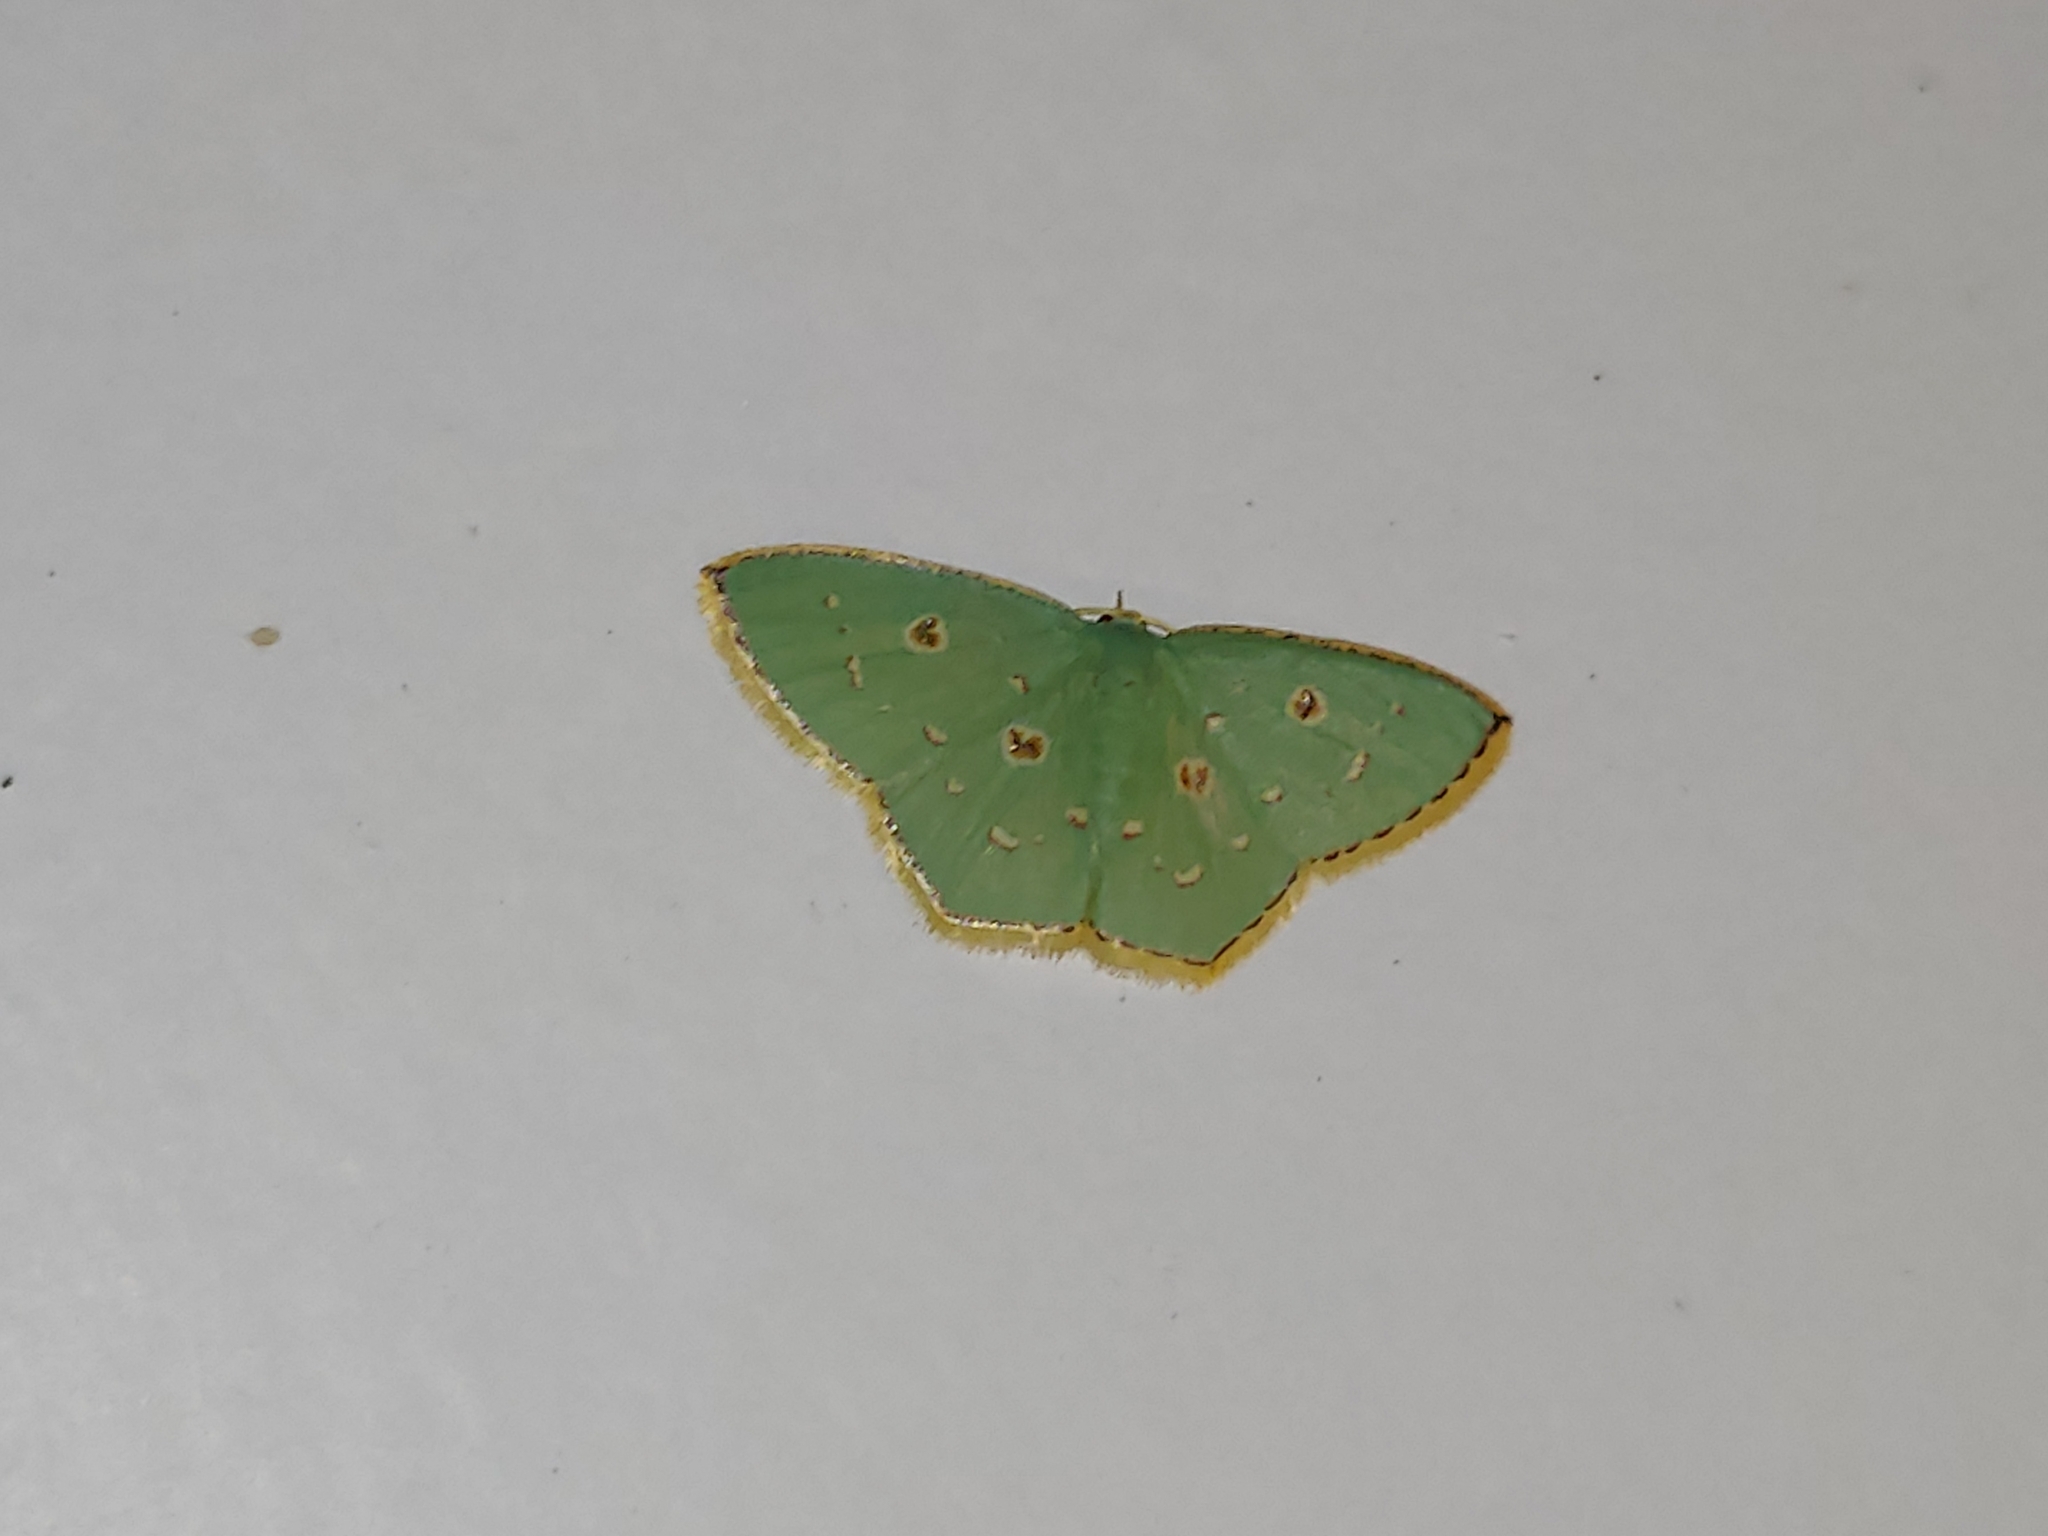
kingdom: Animalia
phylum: Arthropoda
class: Insecta
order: Lepidoptera
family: Geometridae
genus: Comostola
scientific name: Comostola laesaria
